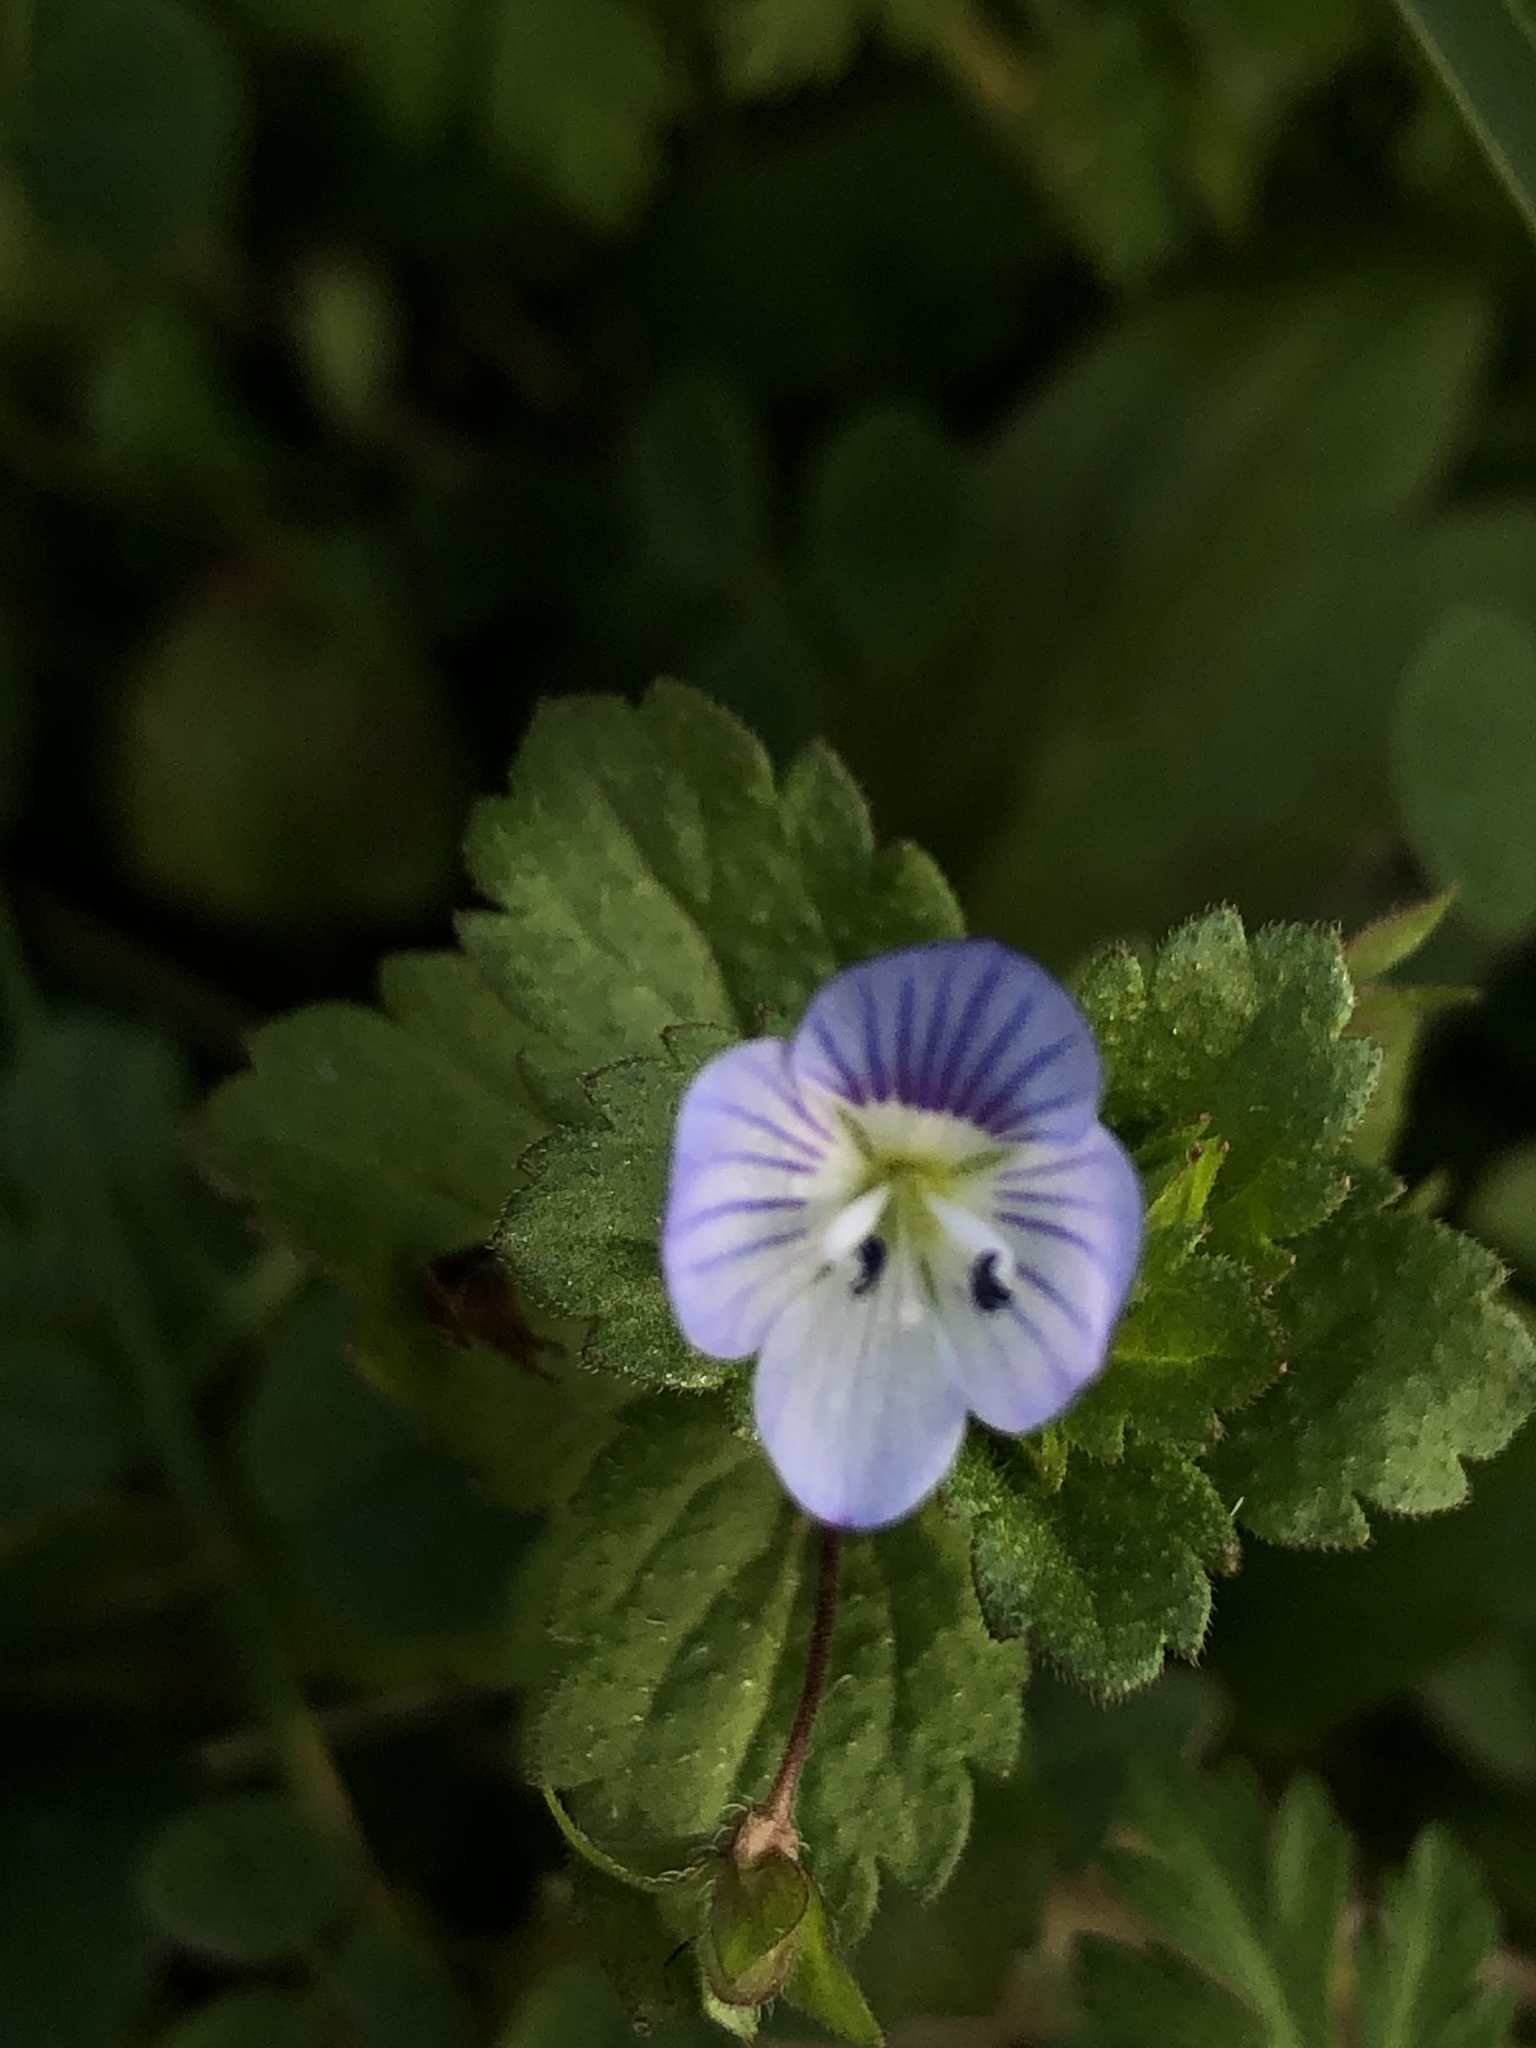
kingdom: Plantae
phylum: Tracheophyta
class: Magnoliopsida
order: Lamiales
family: Plantaginaceae
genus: Veronica
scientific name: Veronica persica
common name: Common field-speedwell
